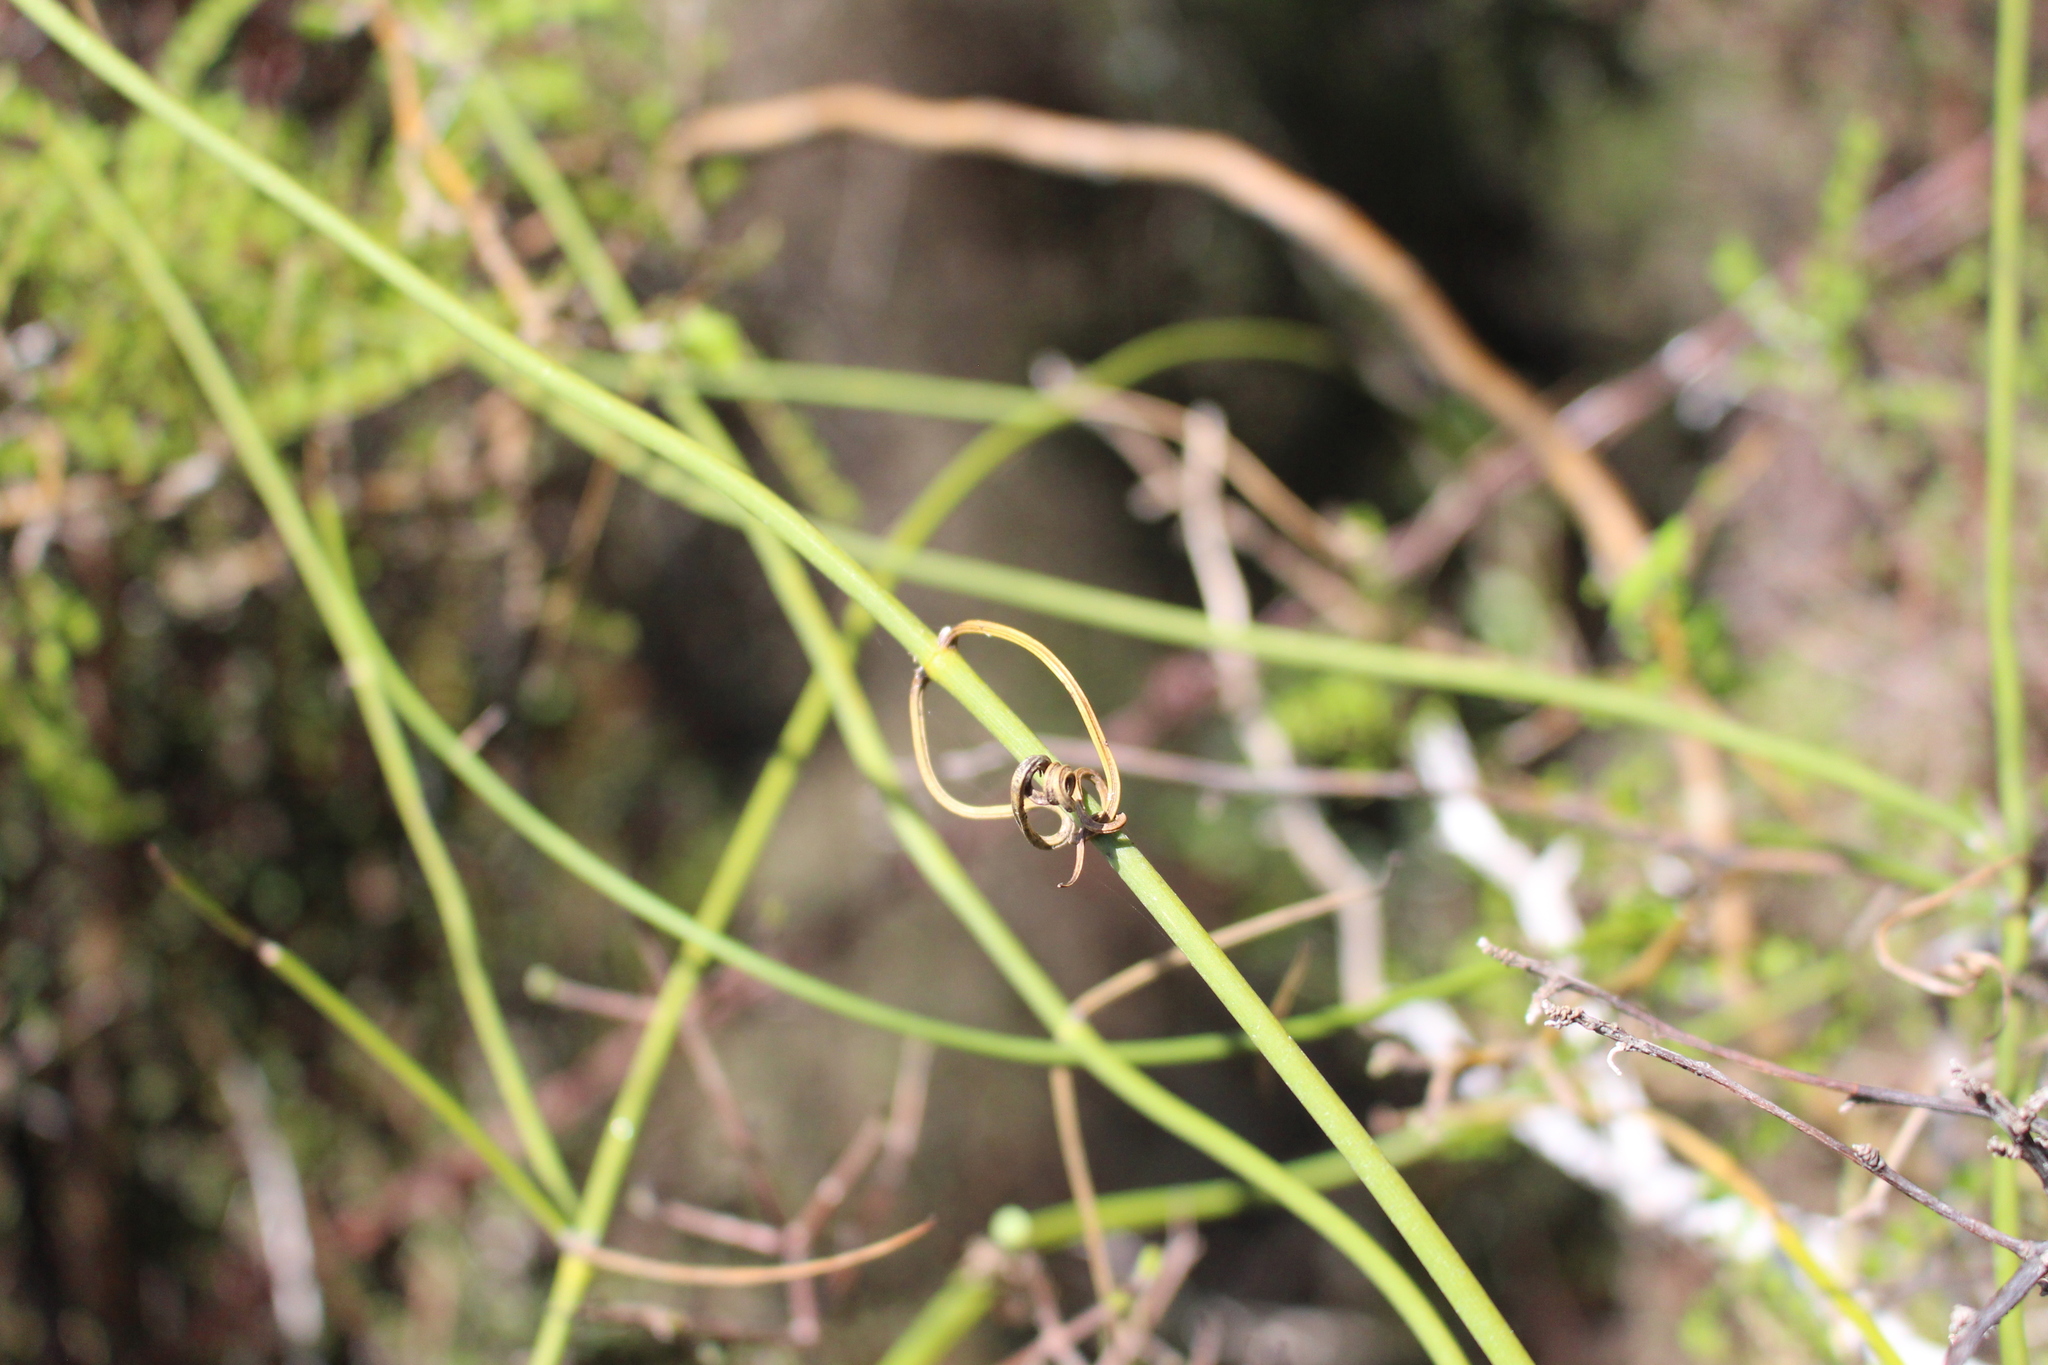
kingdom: Plantae
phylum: Tracheophyta
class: Magnoliopsida
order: Ranunculales
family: Ranunculaceae
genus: Clematis
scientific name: Clematis afoliata
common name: Rush-stem clematis
